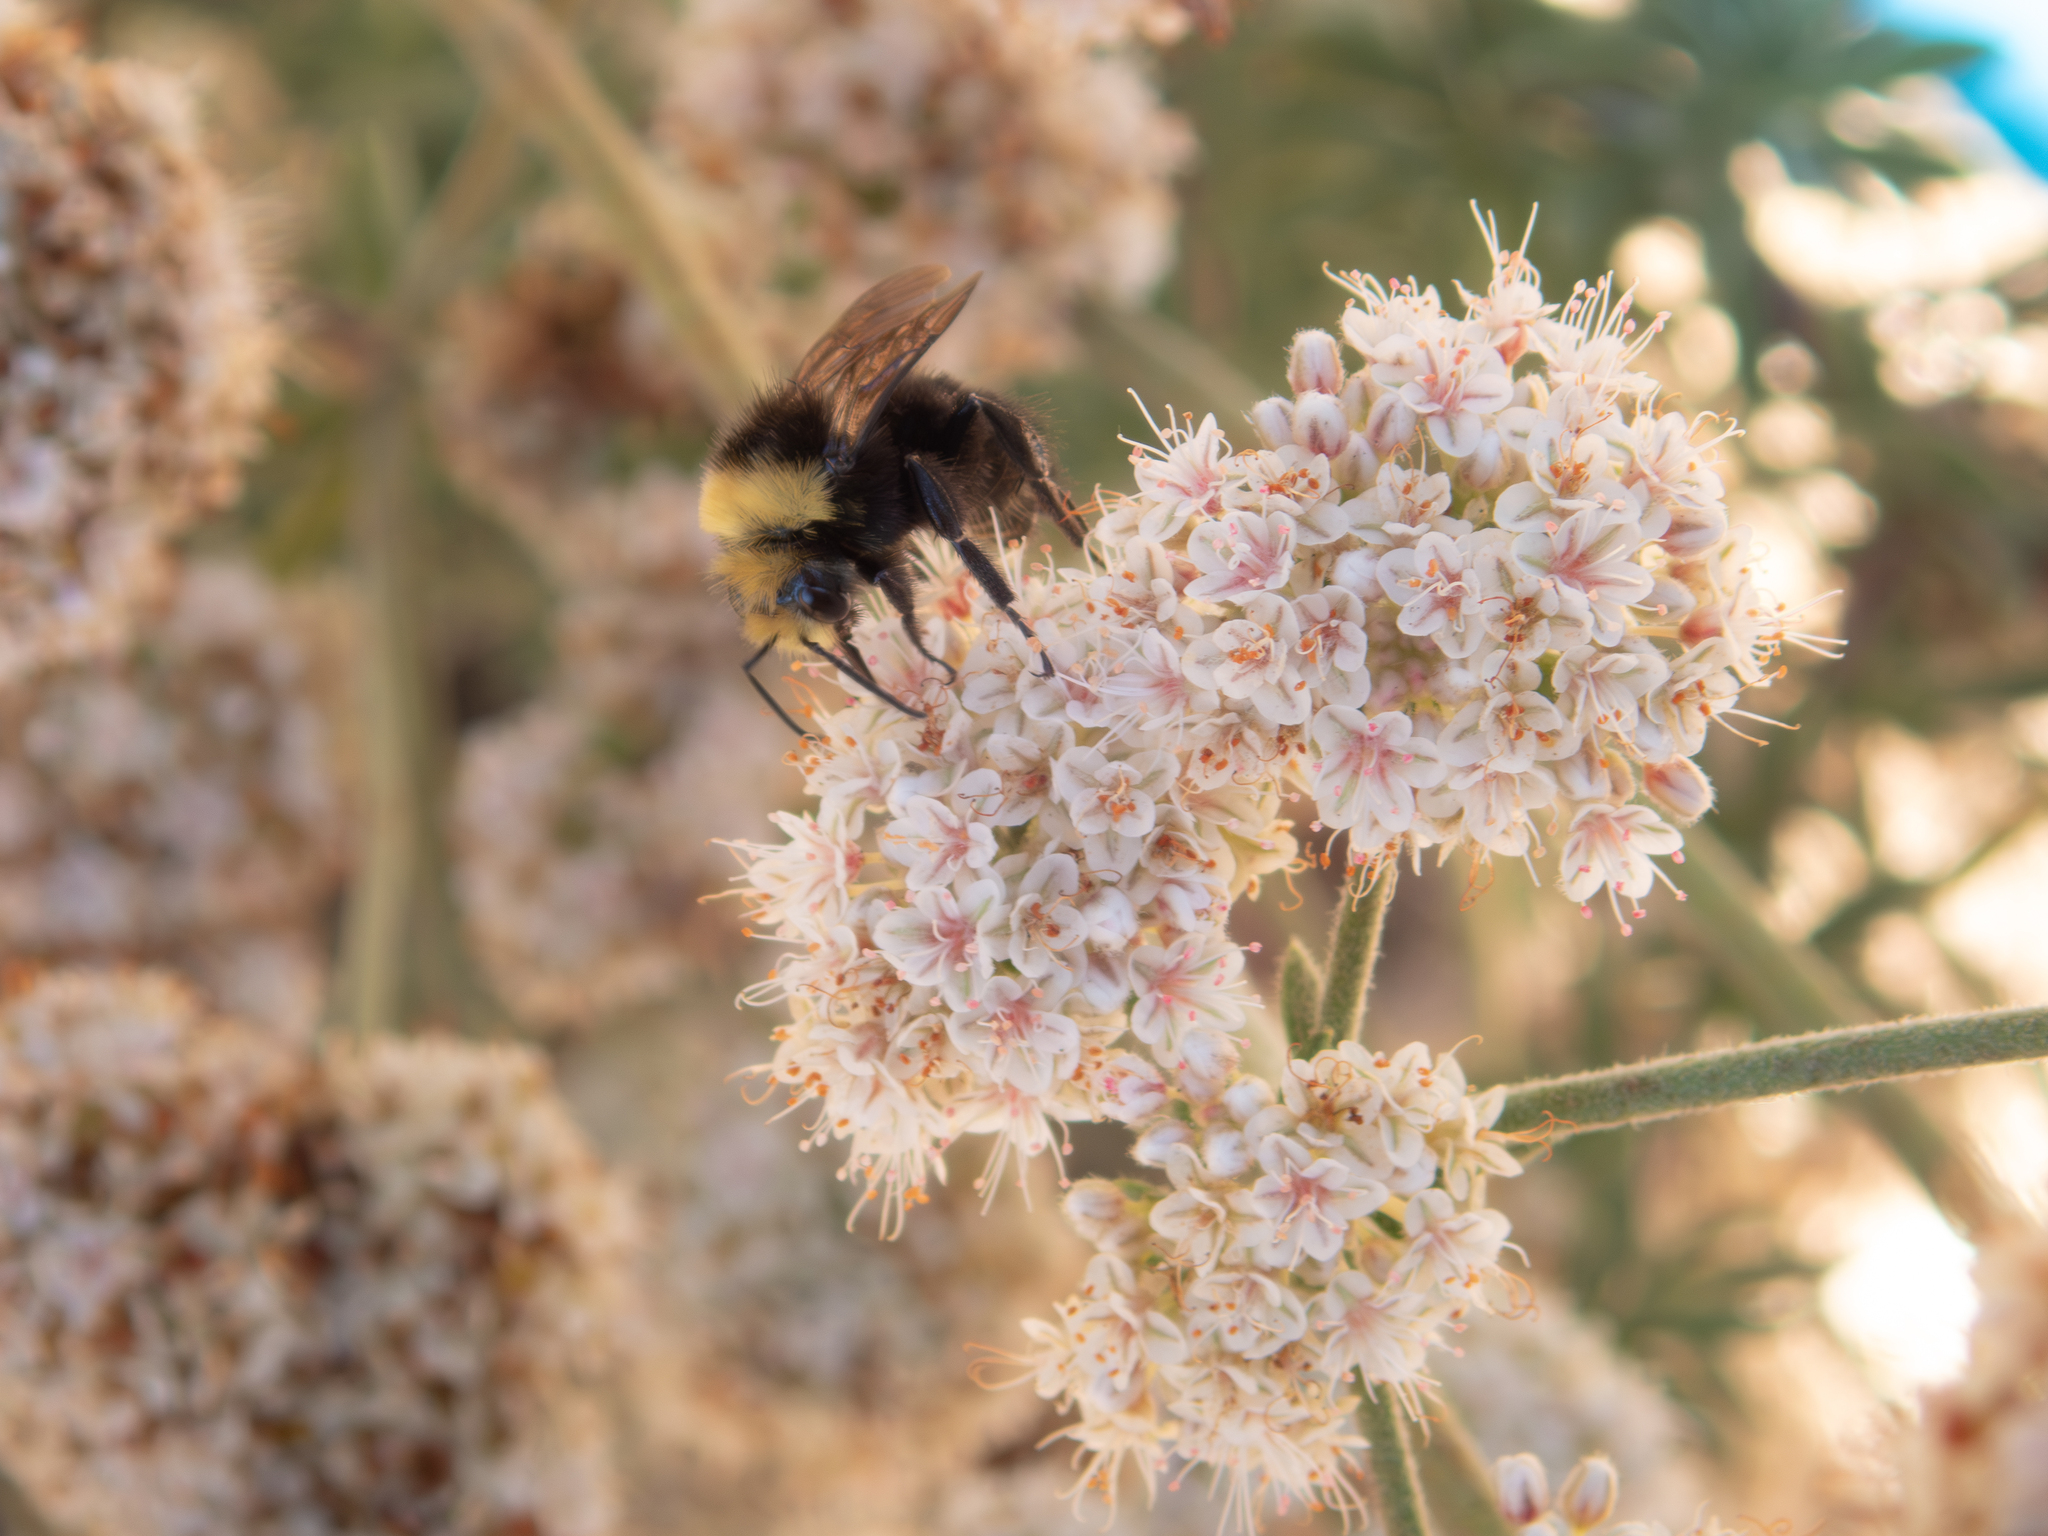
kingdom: Animalia
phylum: Arthropoda
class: Insecta
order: Hymenoptera
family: Apidae
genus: Bombus
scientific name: Bombus vosnesenskii
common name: Vosnesensky bumble bee
